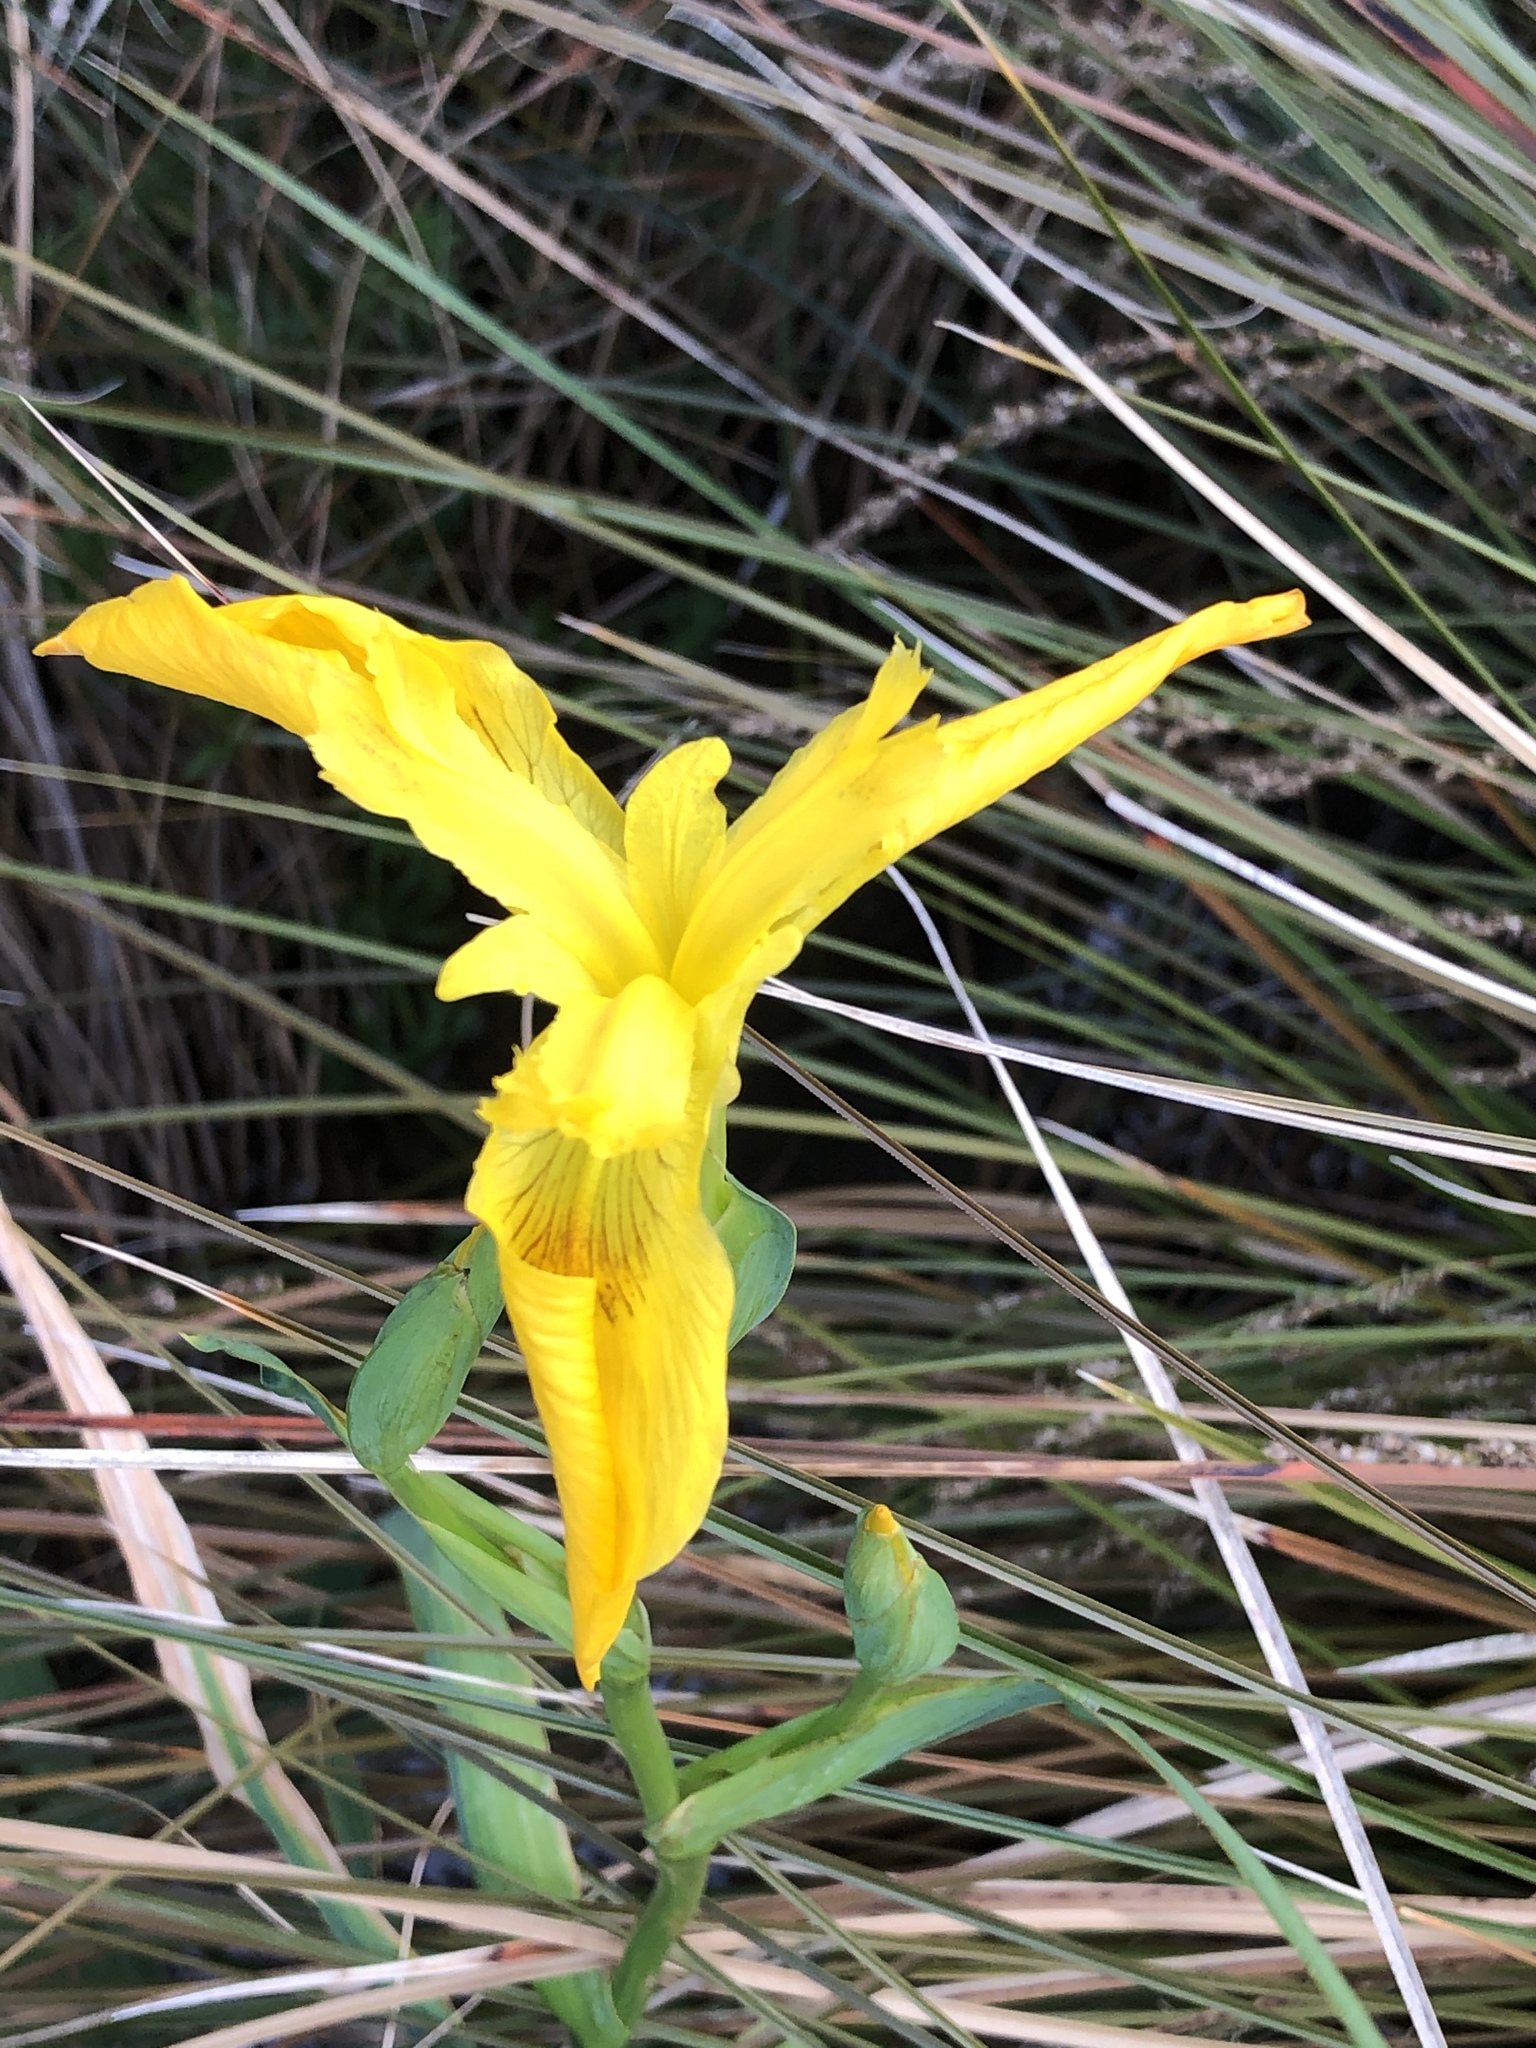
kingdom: Plantae
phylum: Tracheophyta
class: Liliopsida
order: Asparagales
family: Iridaceae
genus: Iris
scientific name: Iris pseudacorus
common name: Yellow flag
